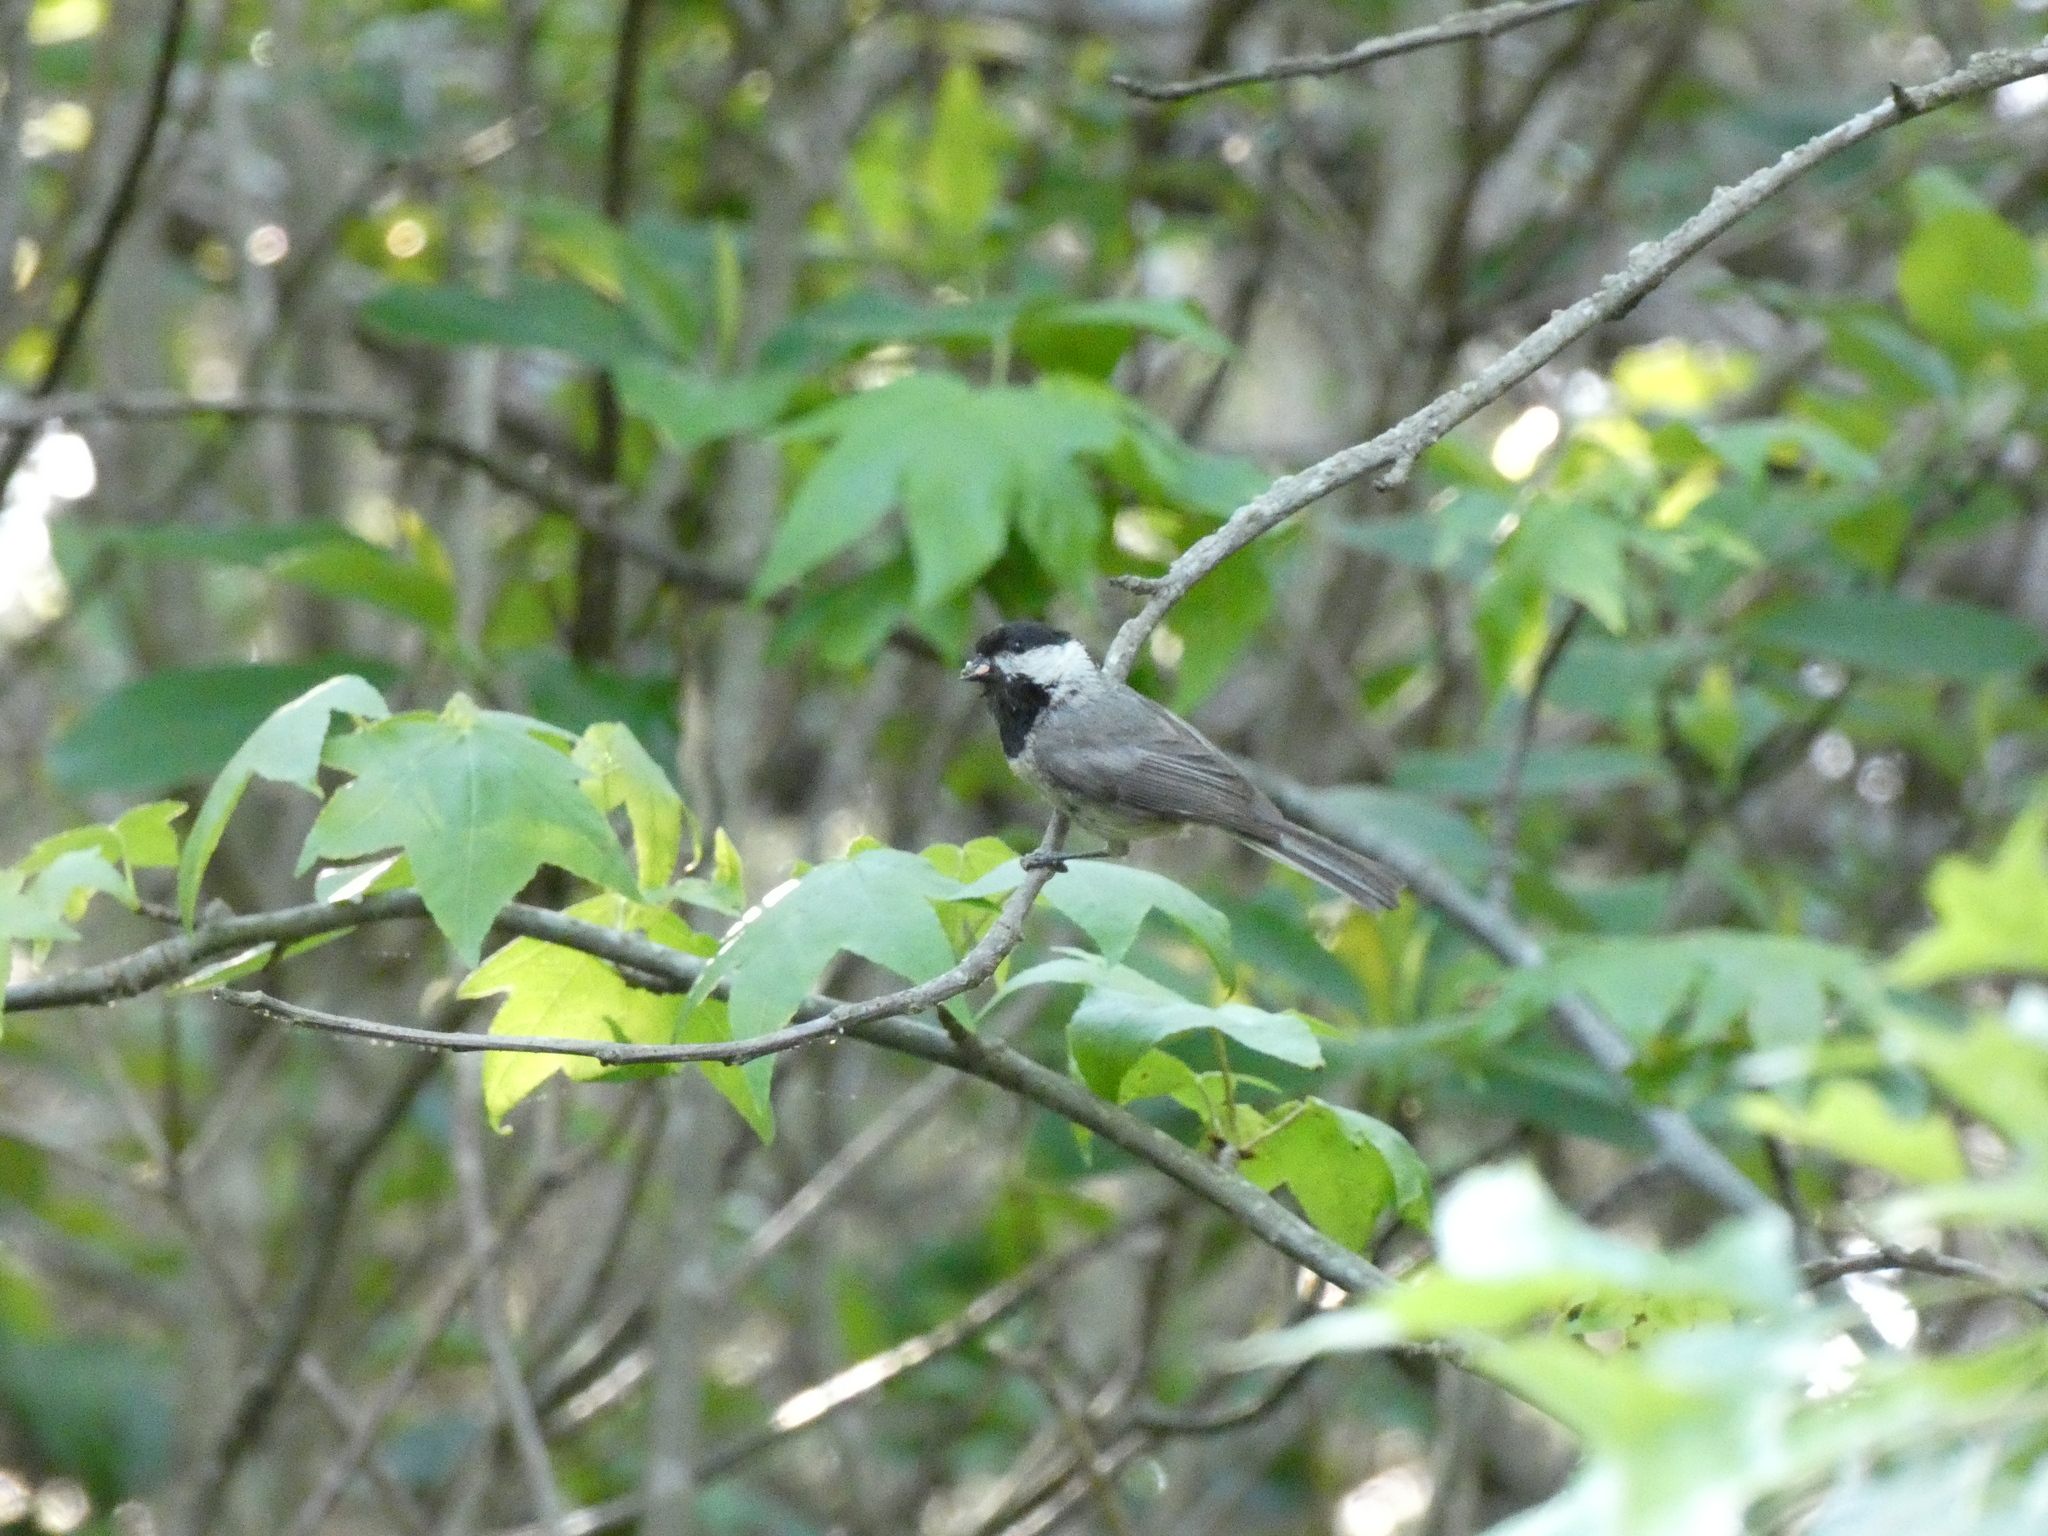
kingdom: Animalia
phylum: Chordata
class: Aves
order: Passeriformes
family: Paridae
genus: Poecile
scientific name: Poecile carolinensis
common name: Carolina chickadee
